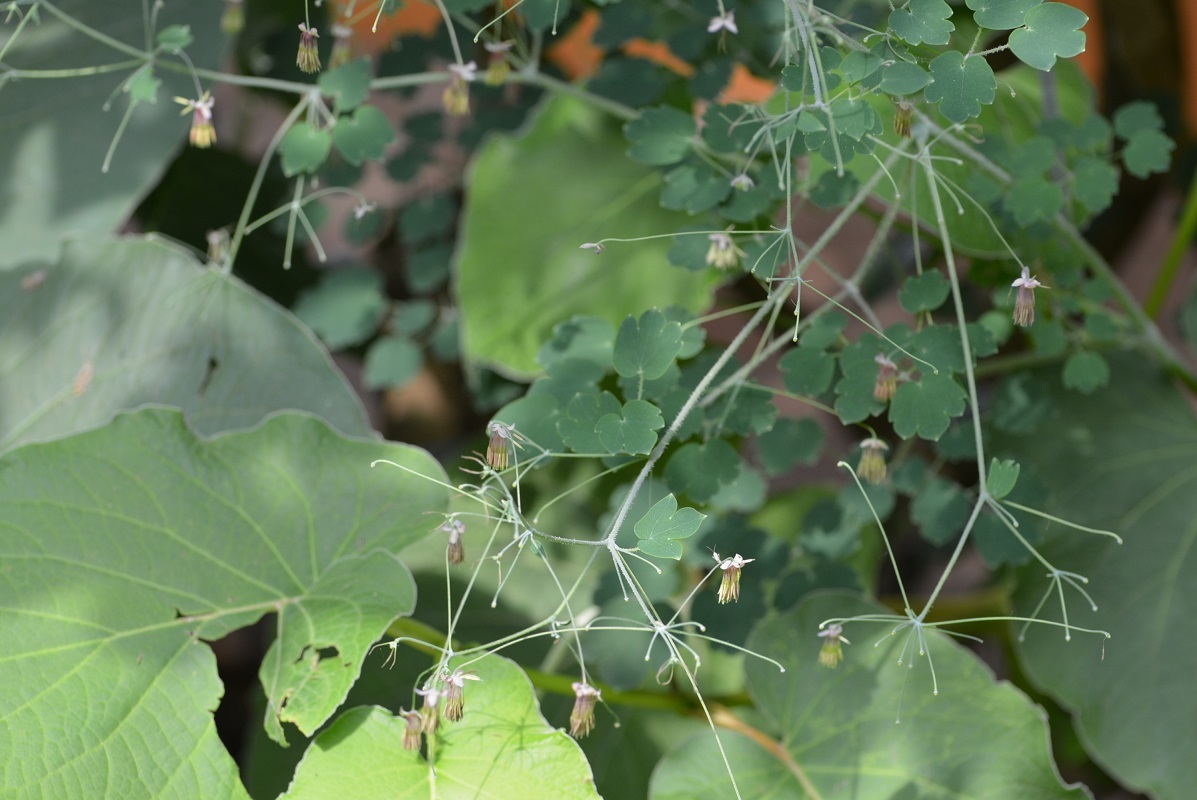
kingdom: Plantae
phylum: Tracheophyta
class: Magnoliopsida
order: Ranunculales
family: Ranunculaceae
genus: Thalictrum
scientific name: Thalictrum guatemalense
